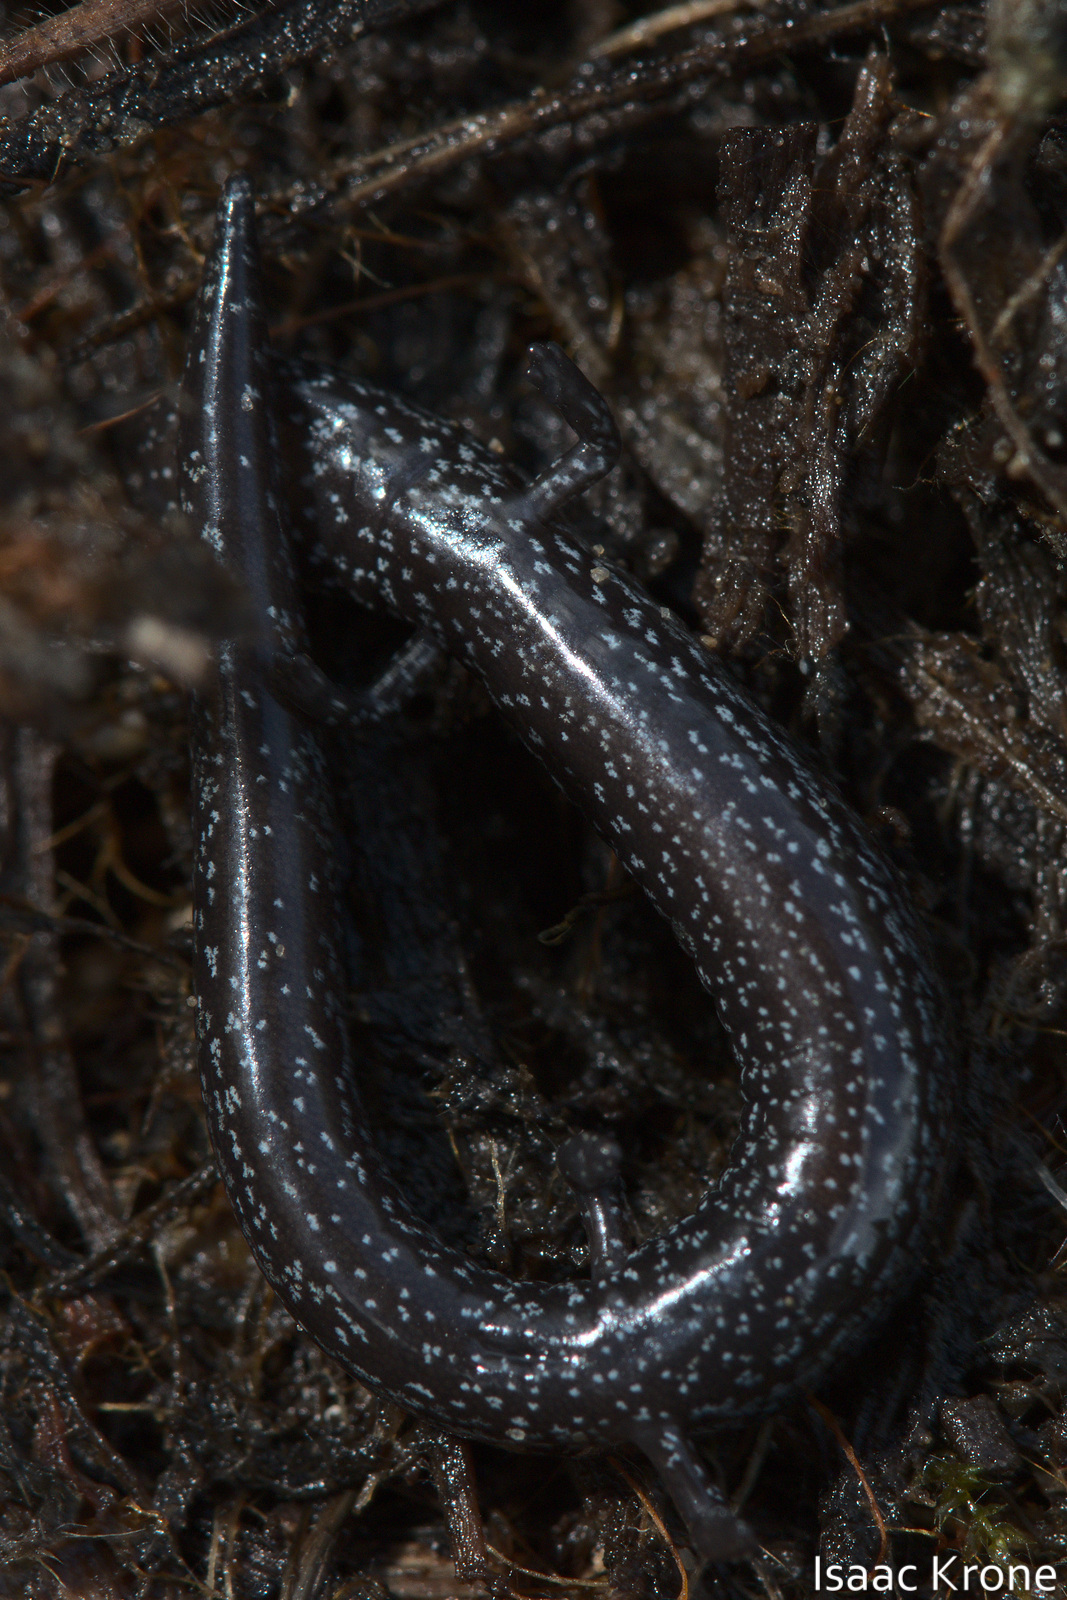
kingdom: Animalia
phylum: Chordata
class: Amphibia
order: Caudata
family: Plethodontidae
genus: Batrachoseps
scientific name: Batrachoseps attenuatus
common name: California slender salamander
